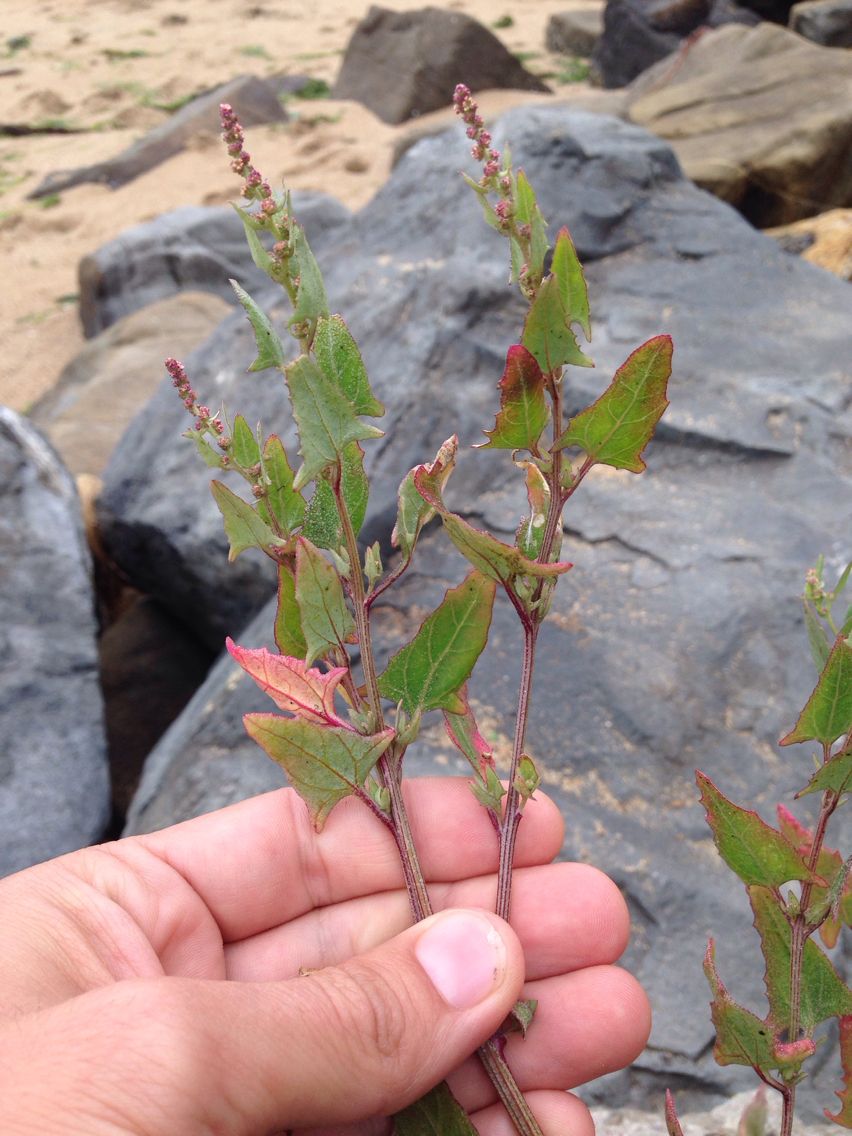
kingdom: Plantae
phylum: Tracheophyta
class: Magnoliopsida
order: Caryophyllales
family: Amaranthaceae
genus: Atriplex
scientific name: Atriplex prostrata
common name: Spear-leaved orache
